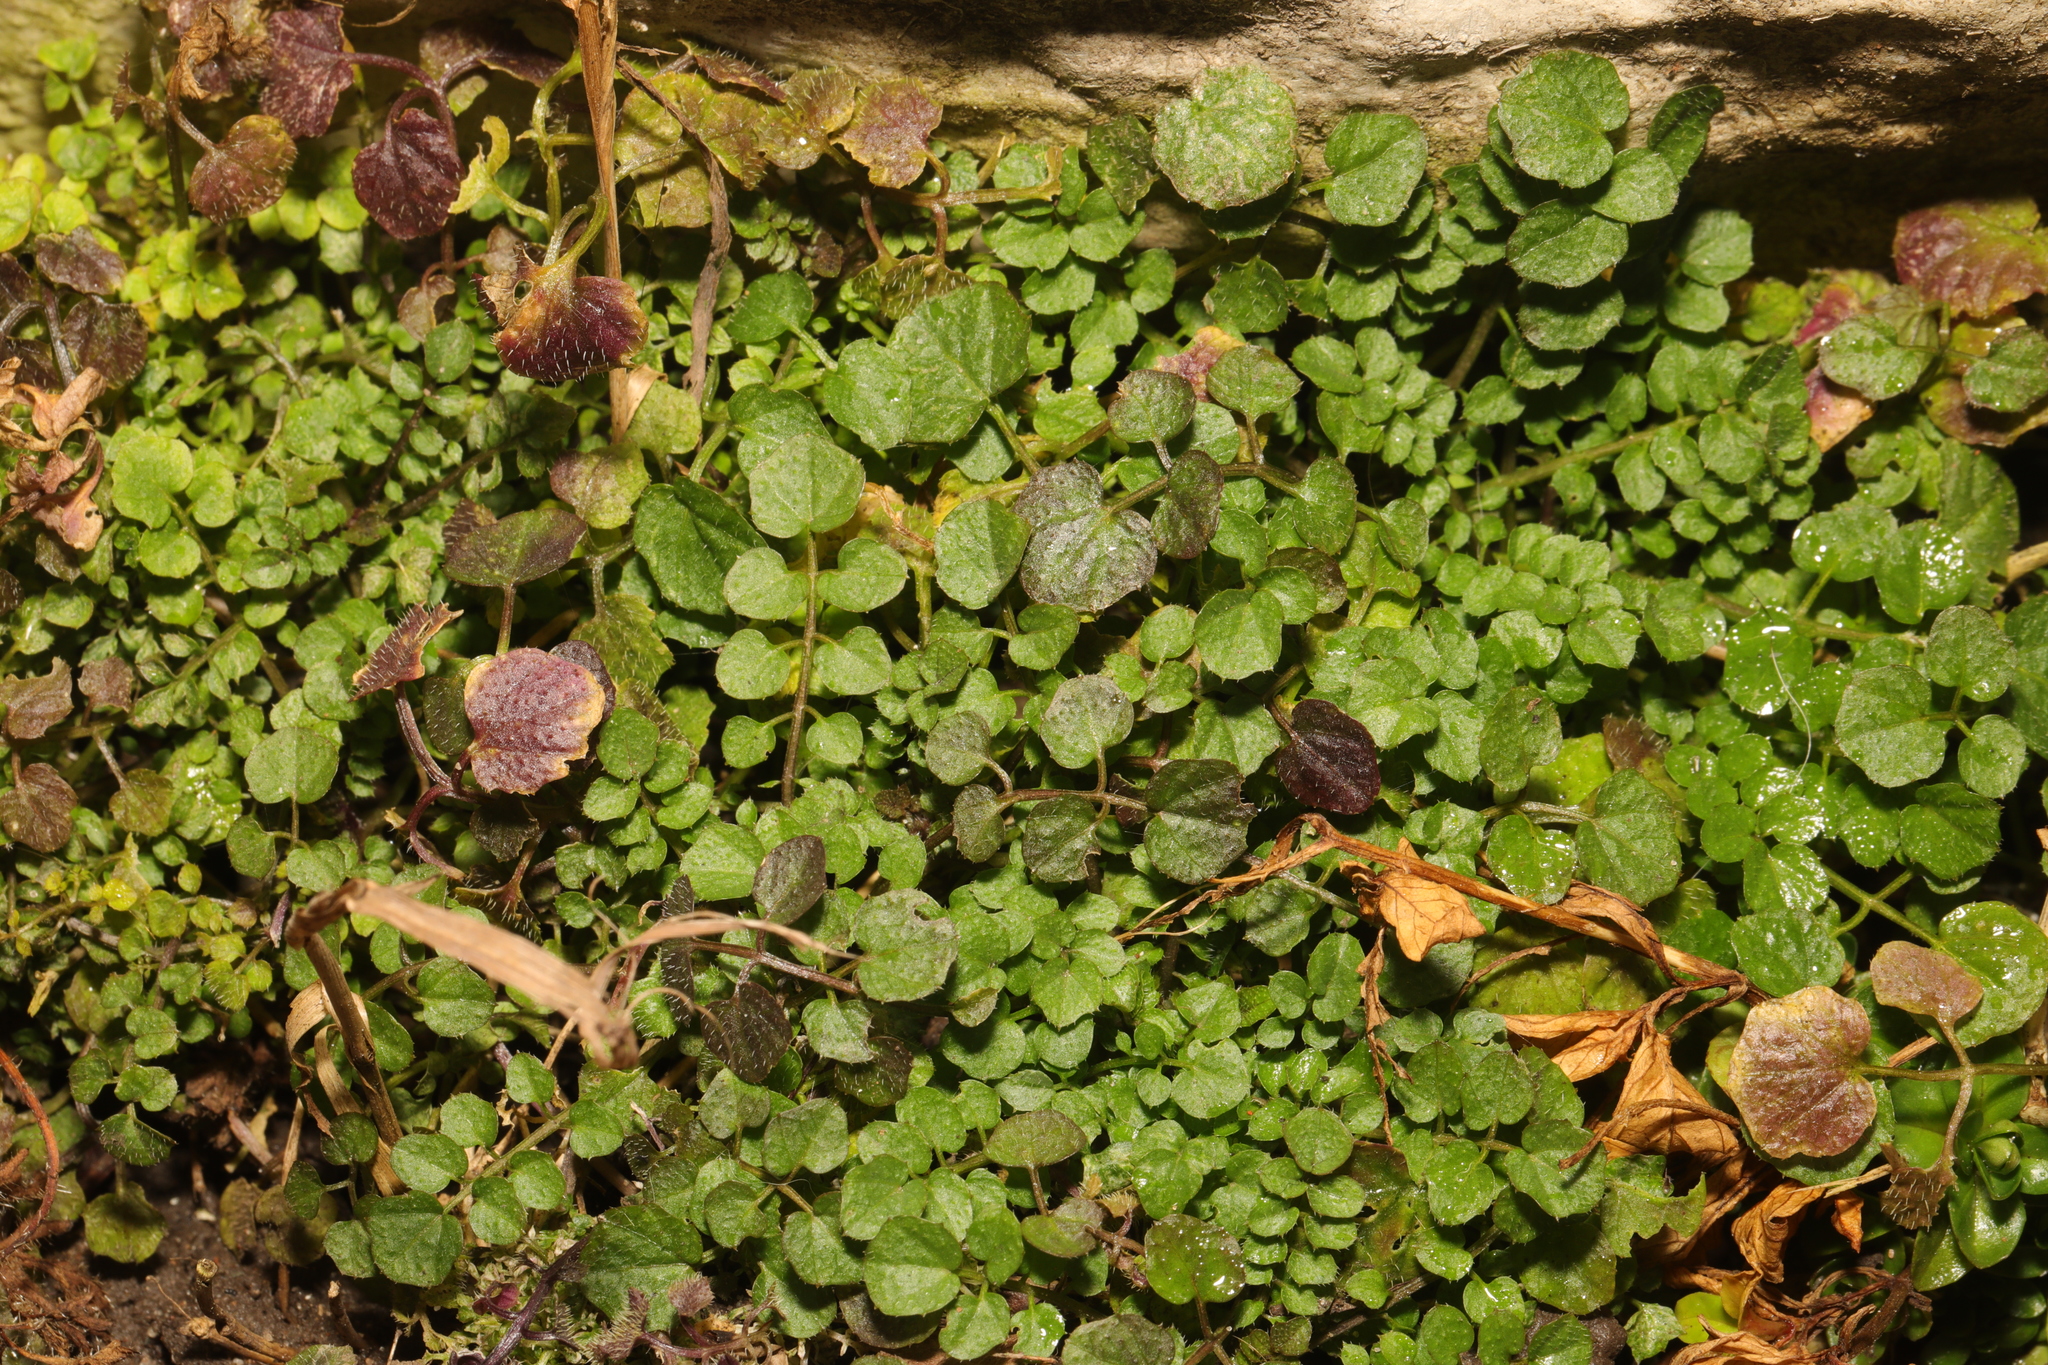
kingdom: Plantae
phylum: Tracheophyta
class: Magnoliopsida
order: Brassicales
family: Brassicaceae
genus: Cardamine
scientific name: Cardamine flexuosa
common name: Woodland bittercress
